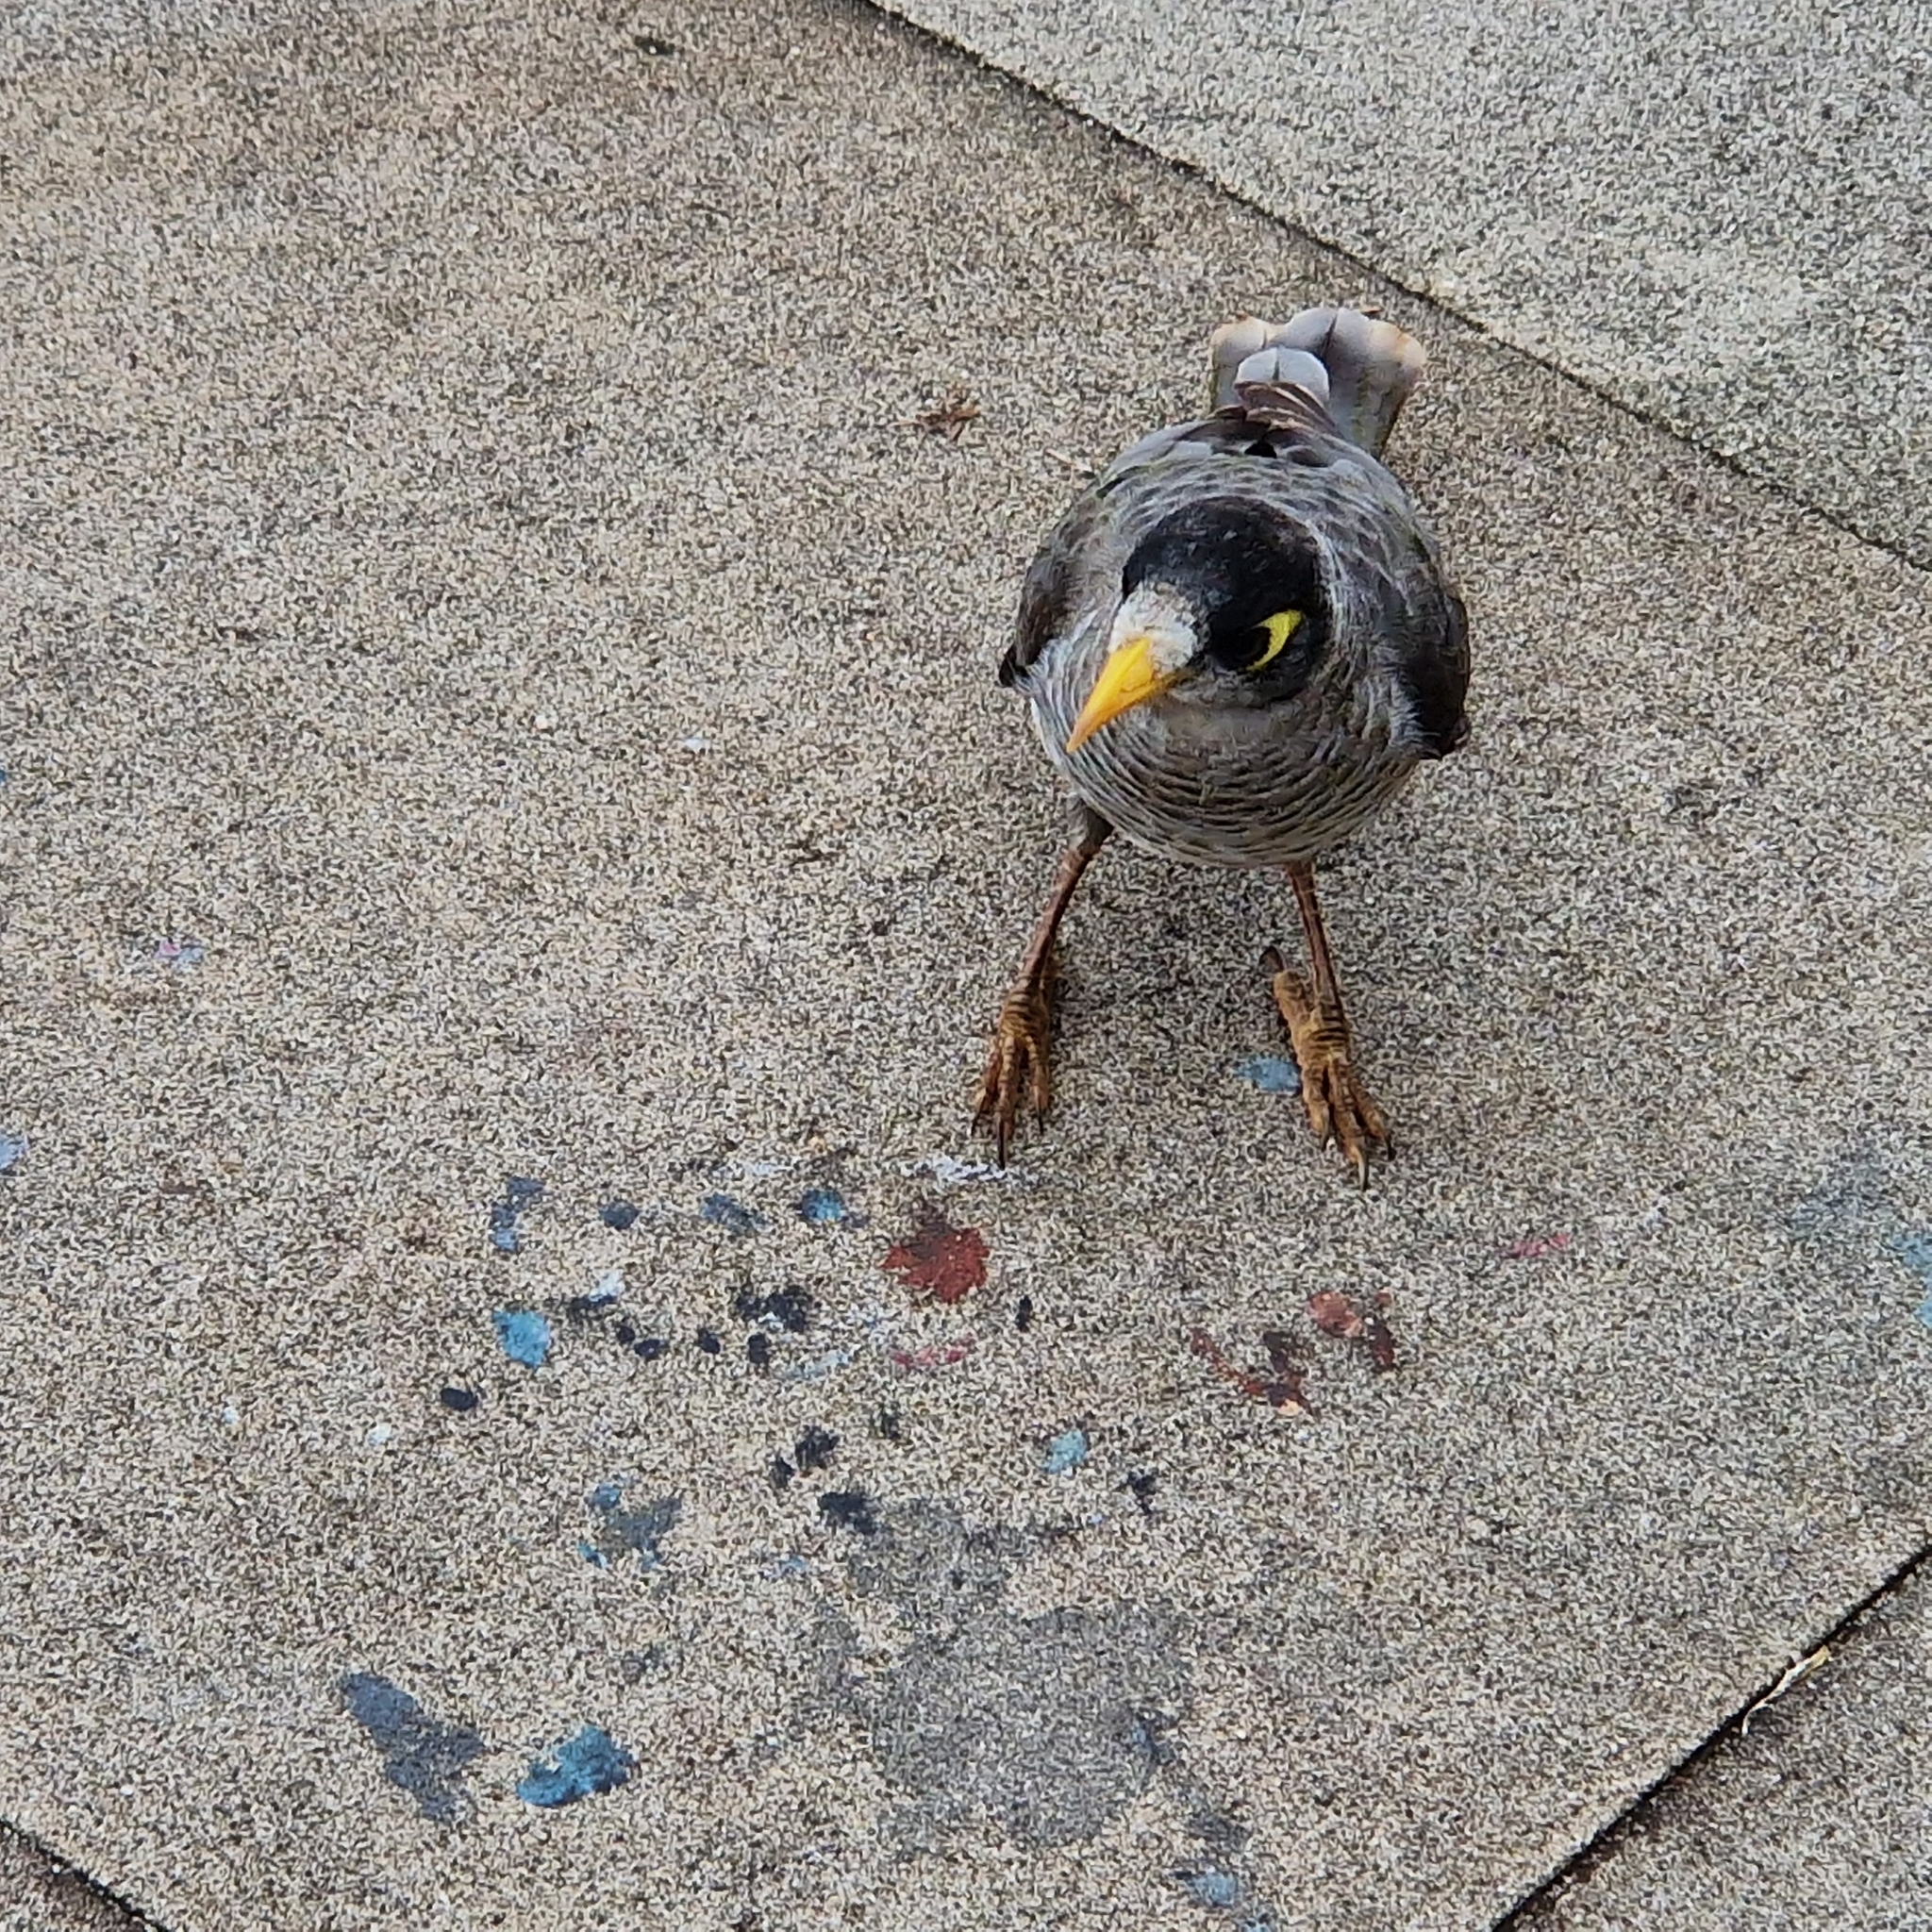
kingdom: Animalia
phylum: Chordata
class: Aves
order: Passeriformes
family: Meliphagidae
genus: Manorina
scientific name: Manorina melanocephala
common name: Noisy miner
